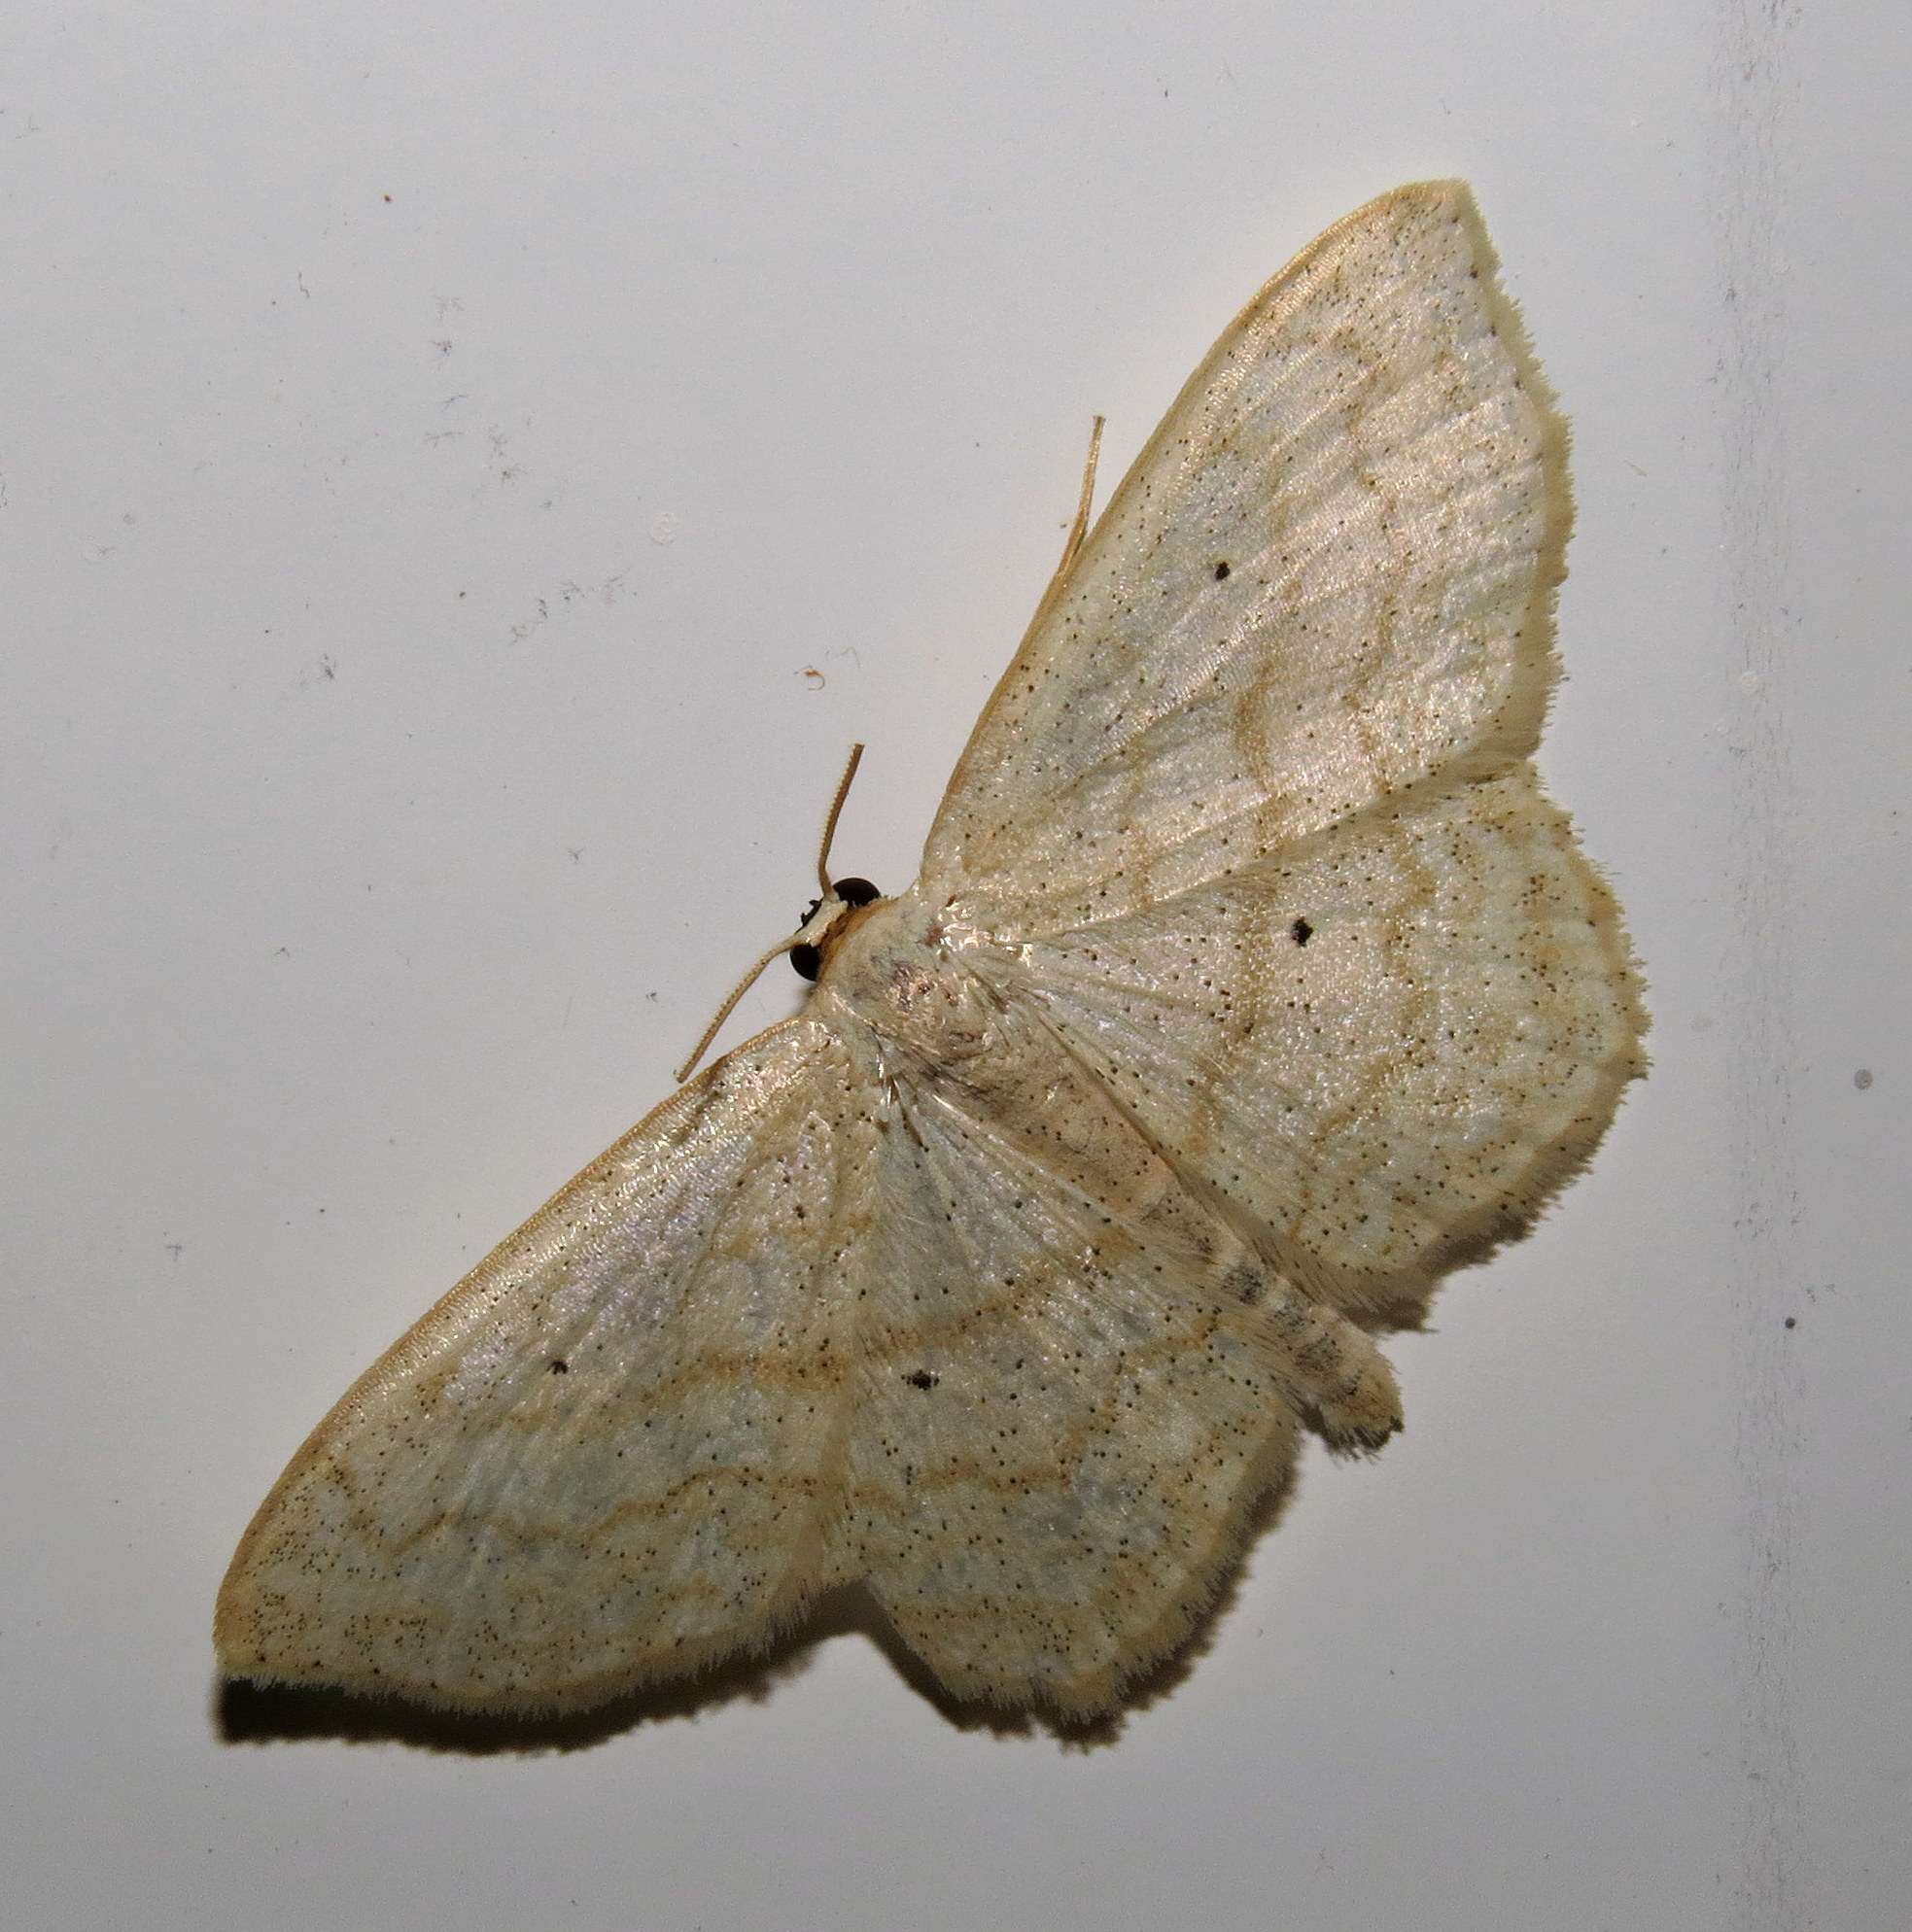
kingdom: Animalia
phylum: Arthropoda
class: Insecta
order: Lepidoptera
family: Geometridae
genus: Scopula
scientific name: Scopula limboundata
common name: Large lace border
